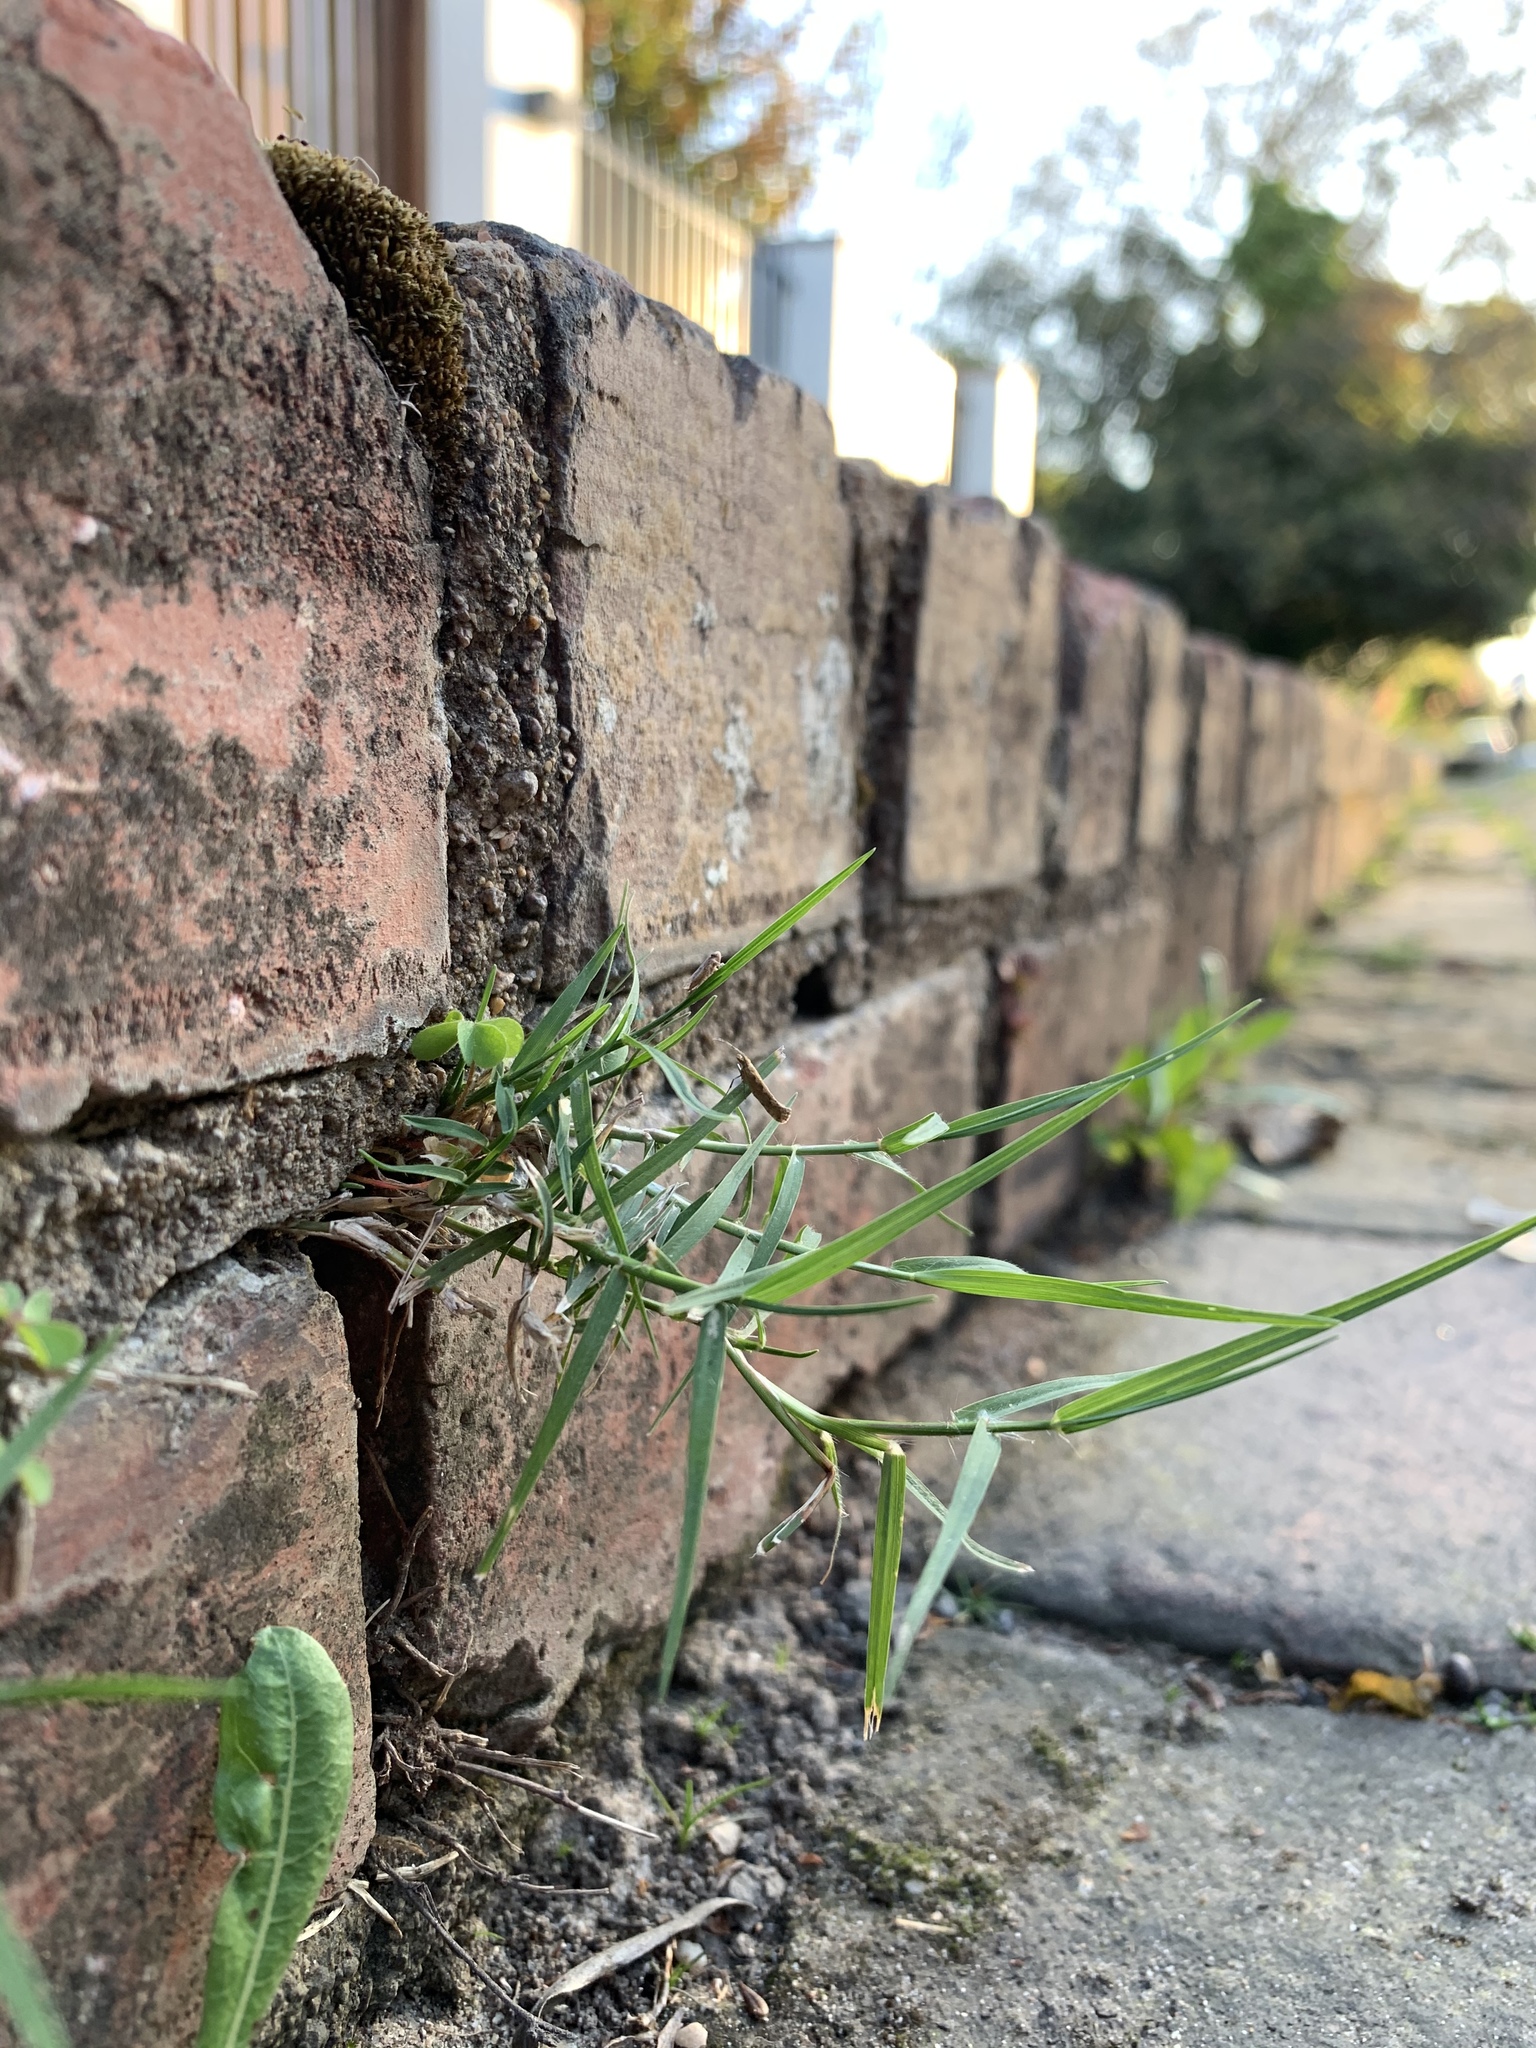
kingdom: Plantae
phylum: Tracheophyta
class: Liliopsida
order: Poales
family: Poaceae
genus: Cynodon
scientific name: Cynodon dactylon
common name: Bermuda grass
